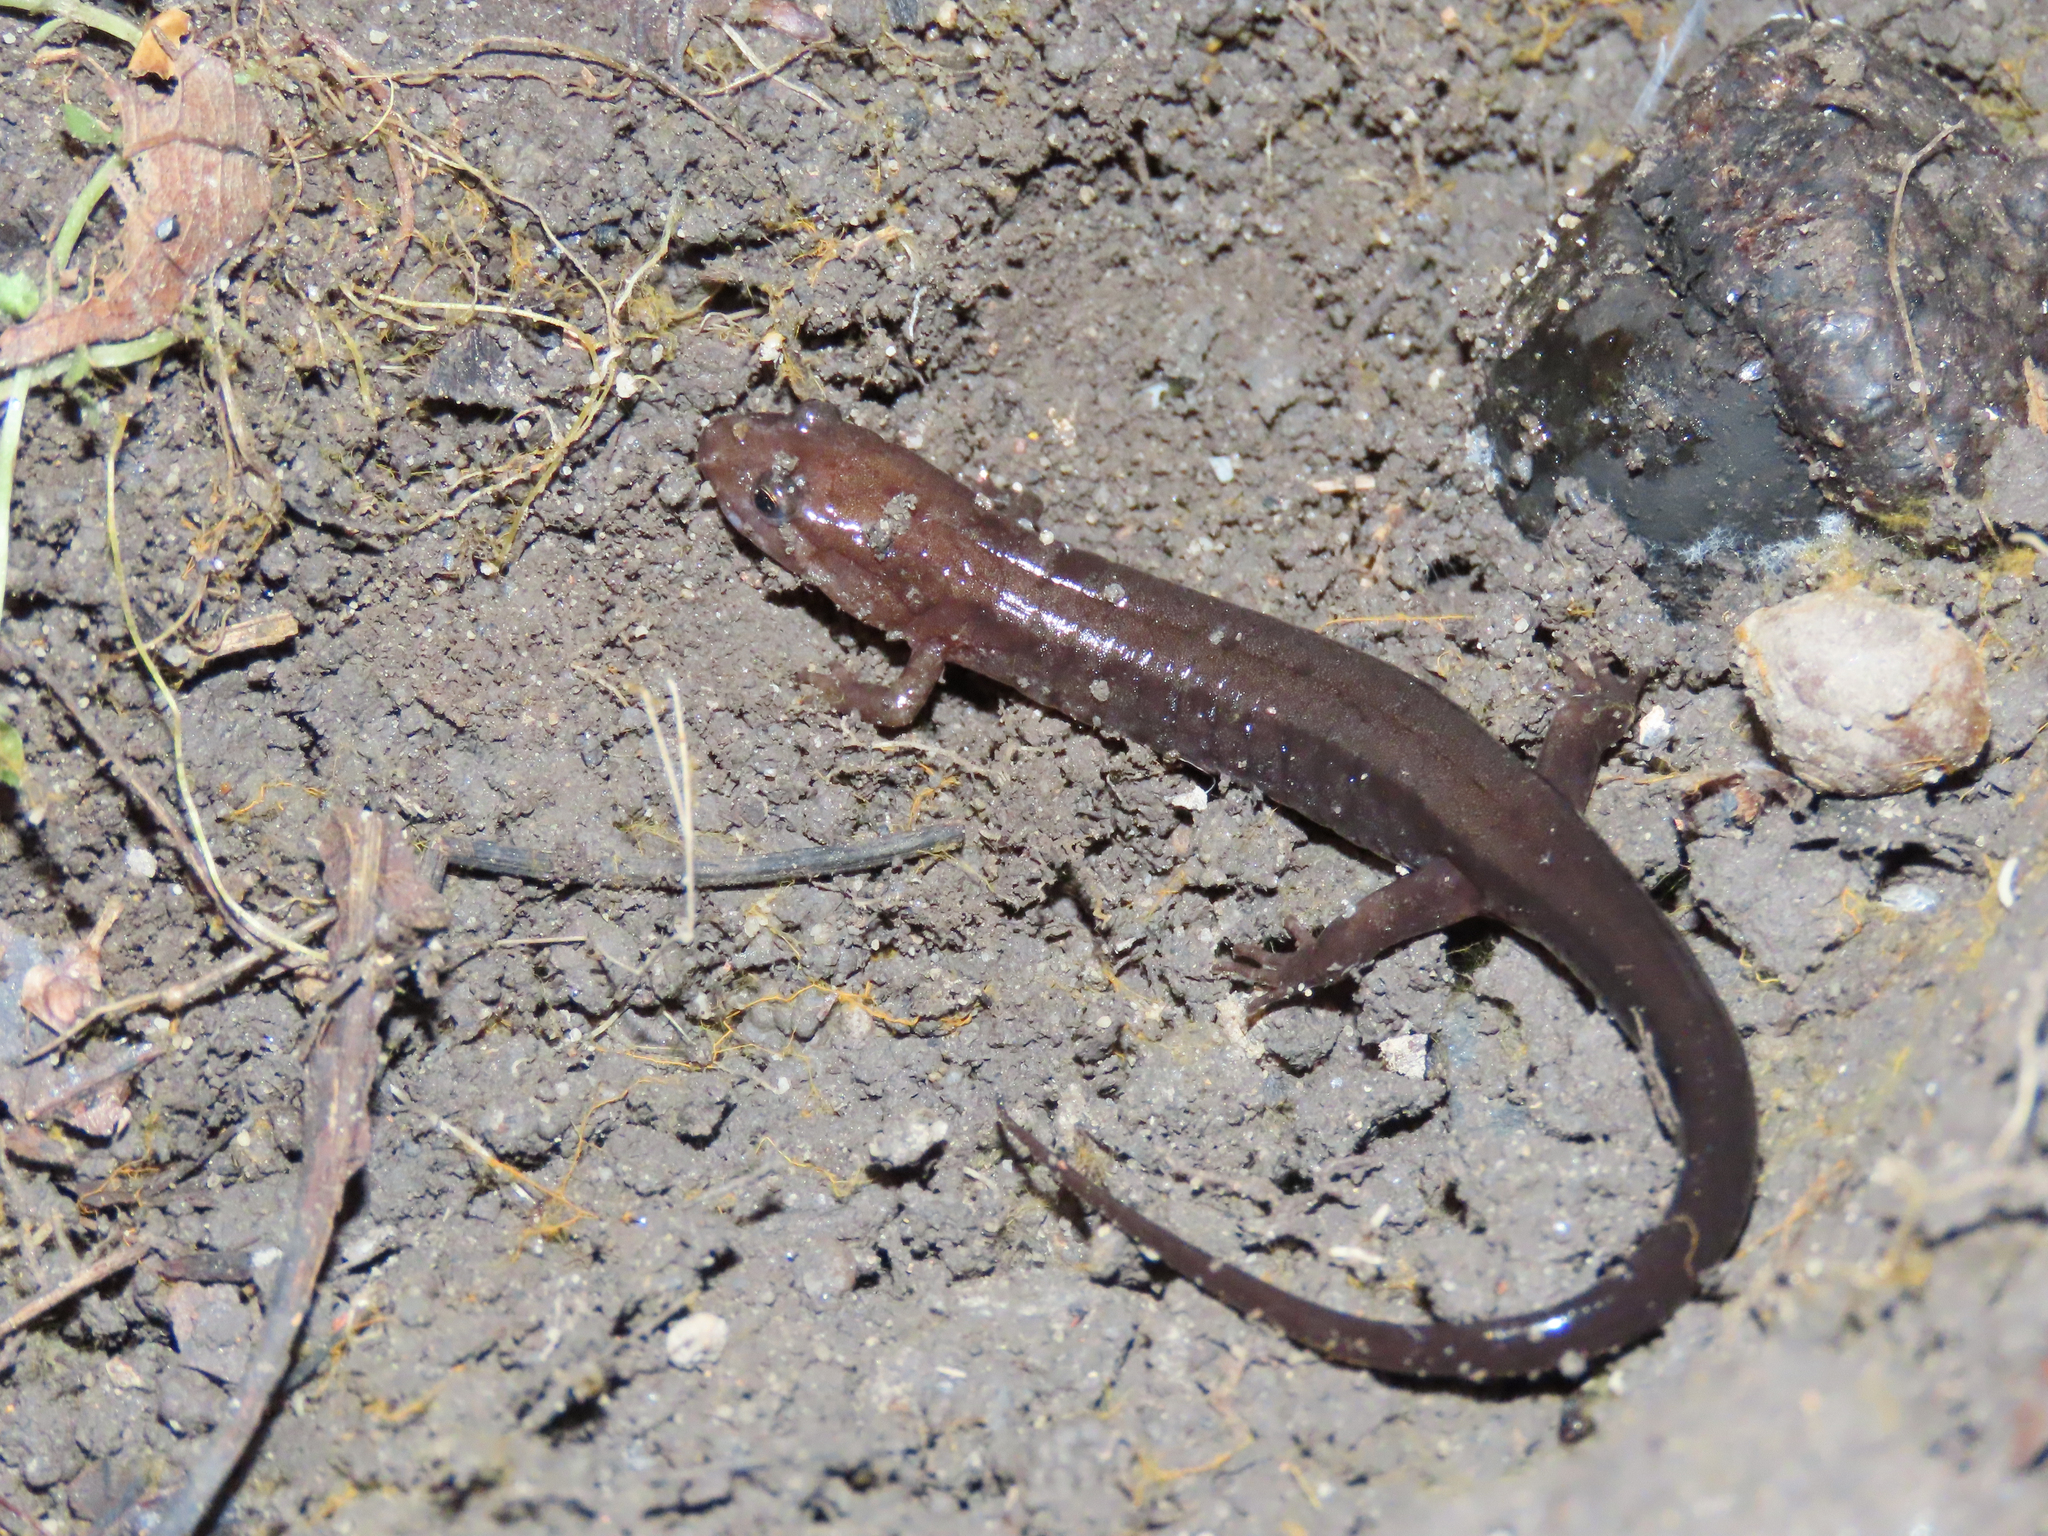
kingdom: Animalia
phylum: Chordata
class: Amphibia
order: Caudata
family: Plethodontidae
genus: Desmognathus
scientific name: Desmognathus ochrophaeus
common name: Allegheny mountain dusky salamander
